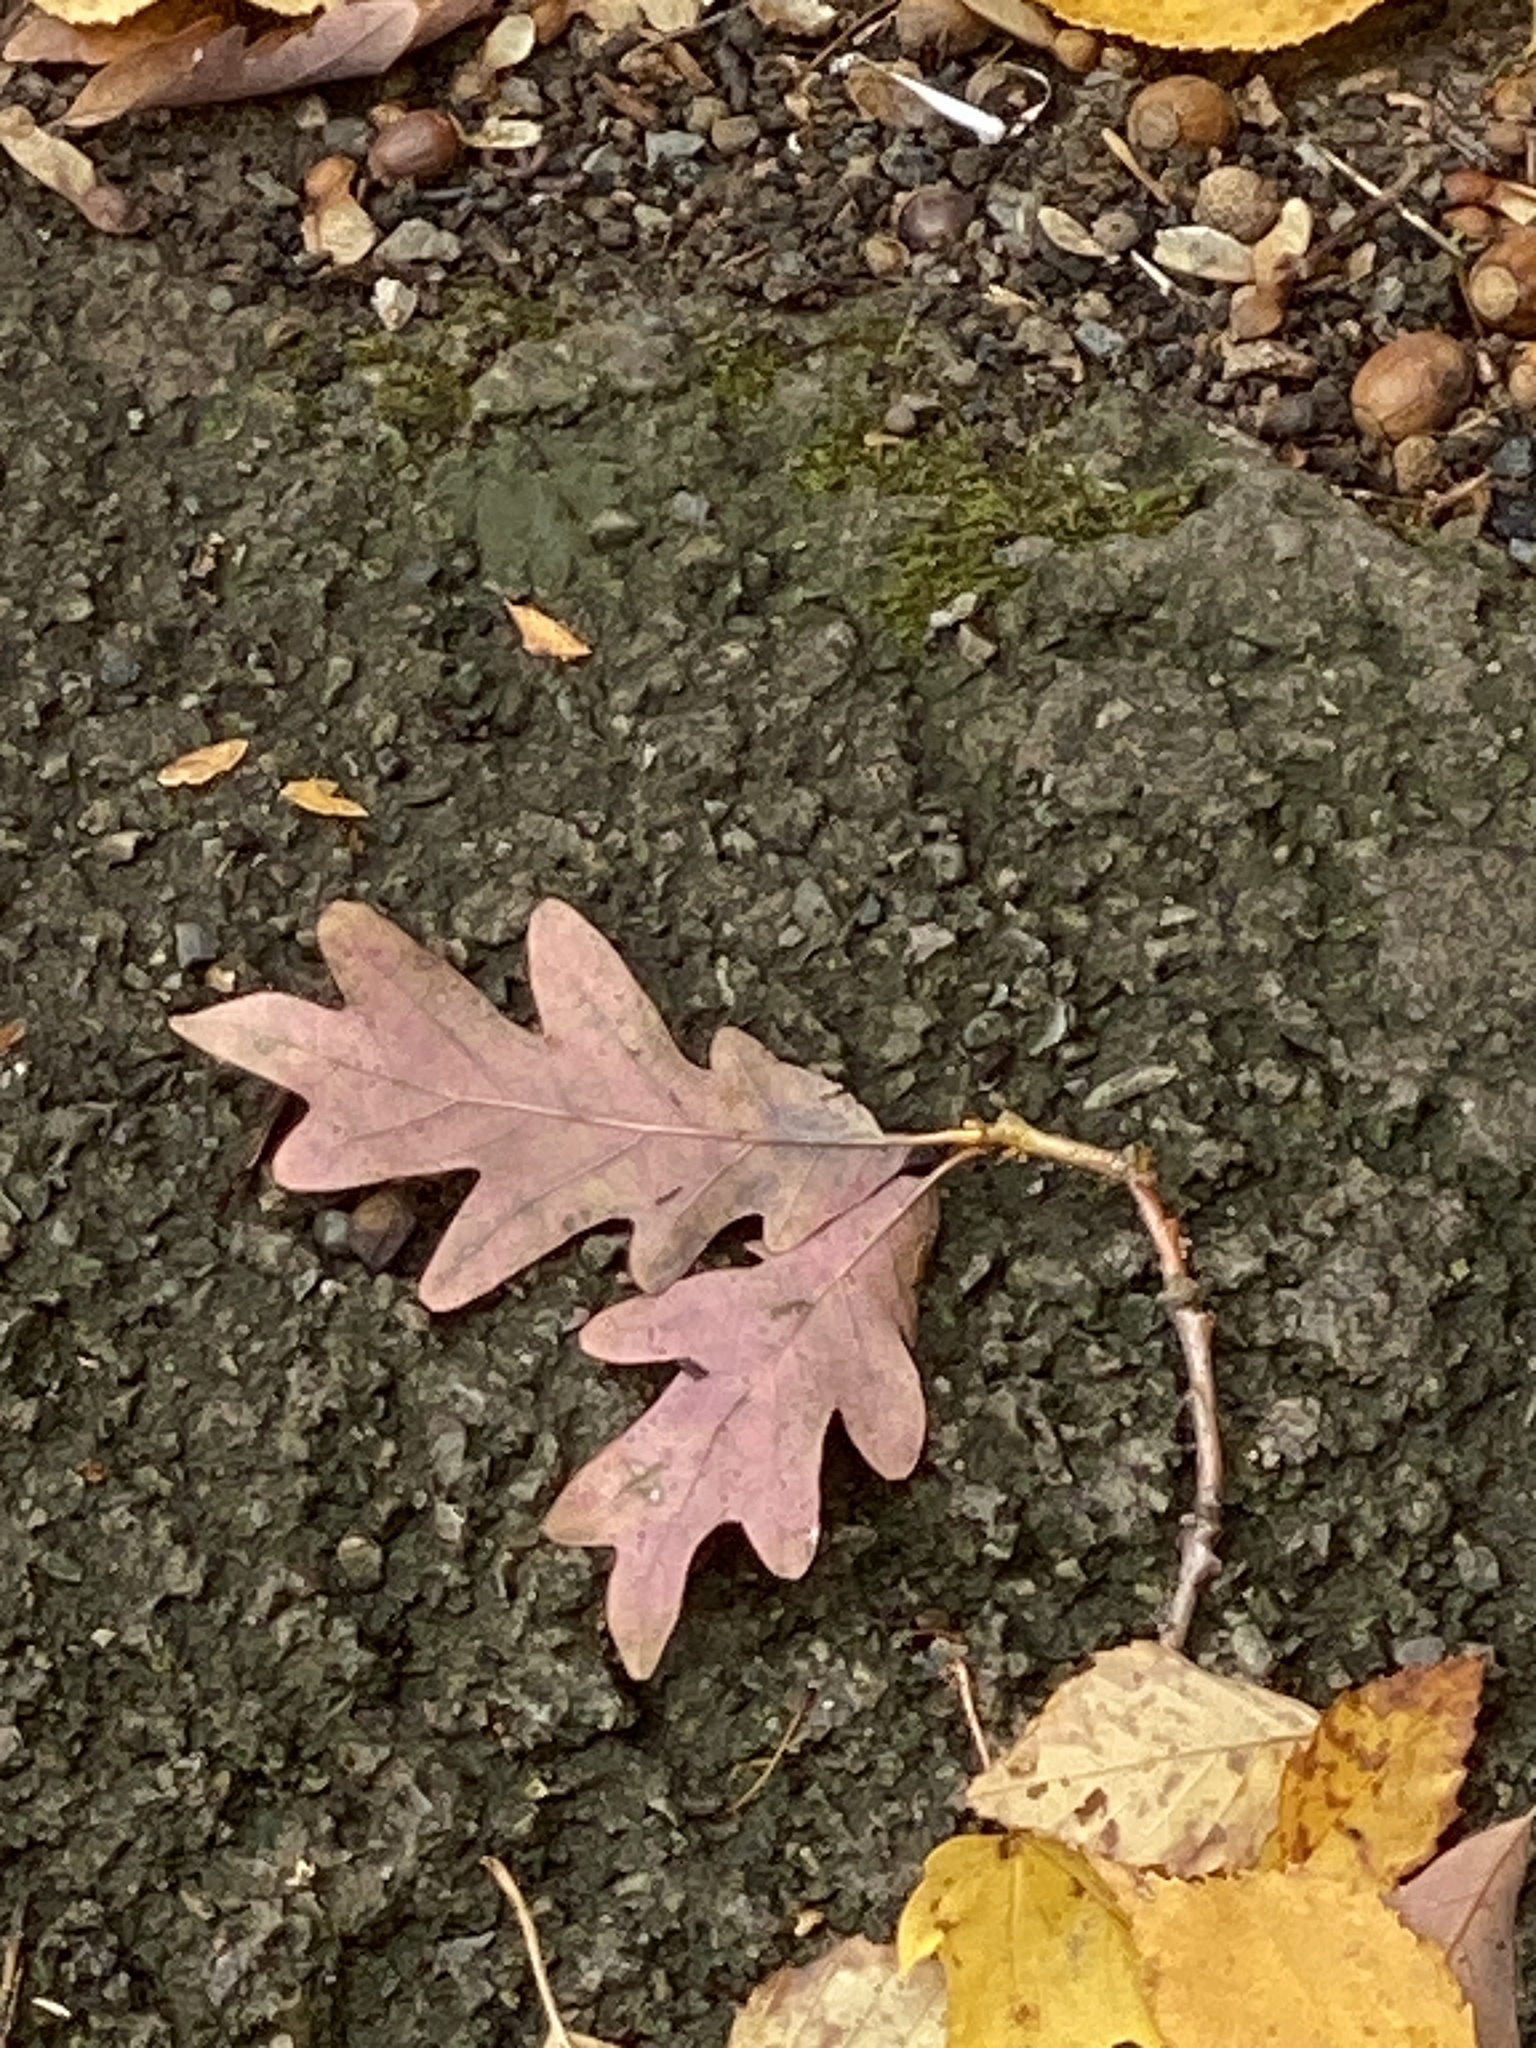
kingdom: Plantae
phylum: Tracheophyta
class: Magnoliopsida
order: Fagales
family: Fagaceae
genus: Quercus
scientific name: Quercus alba
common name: White oak
